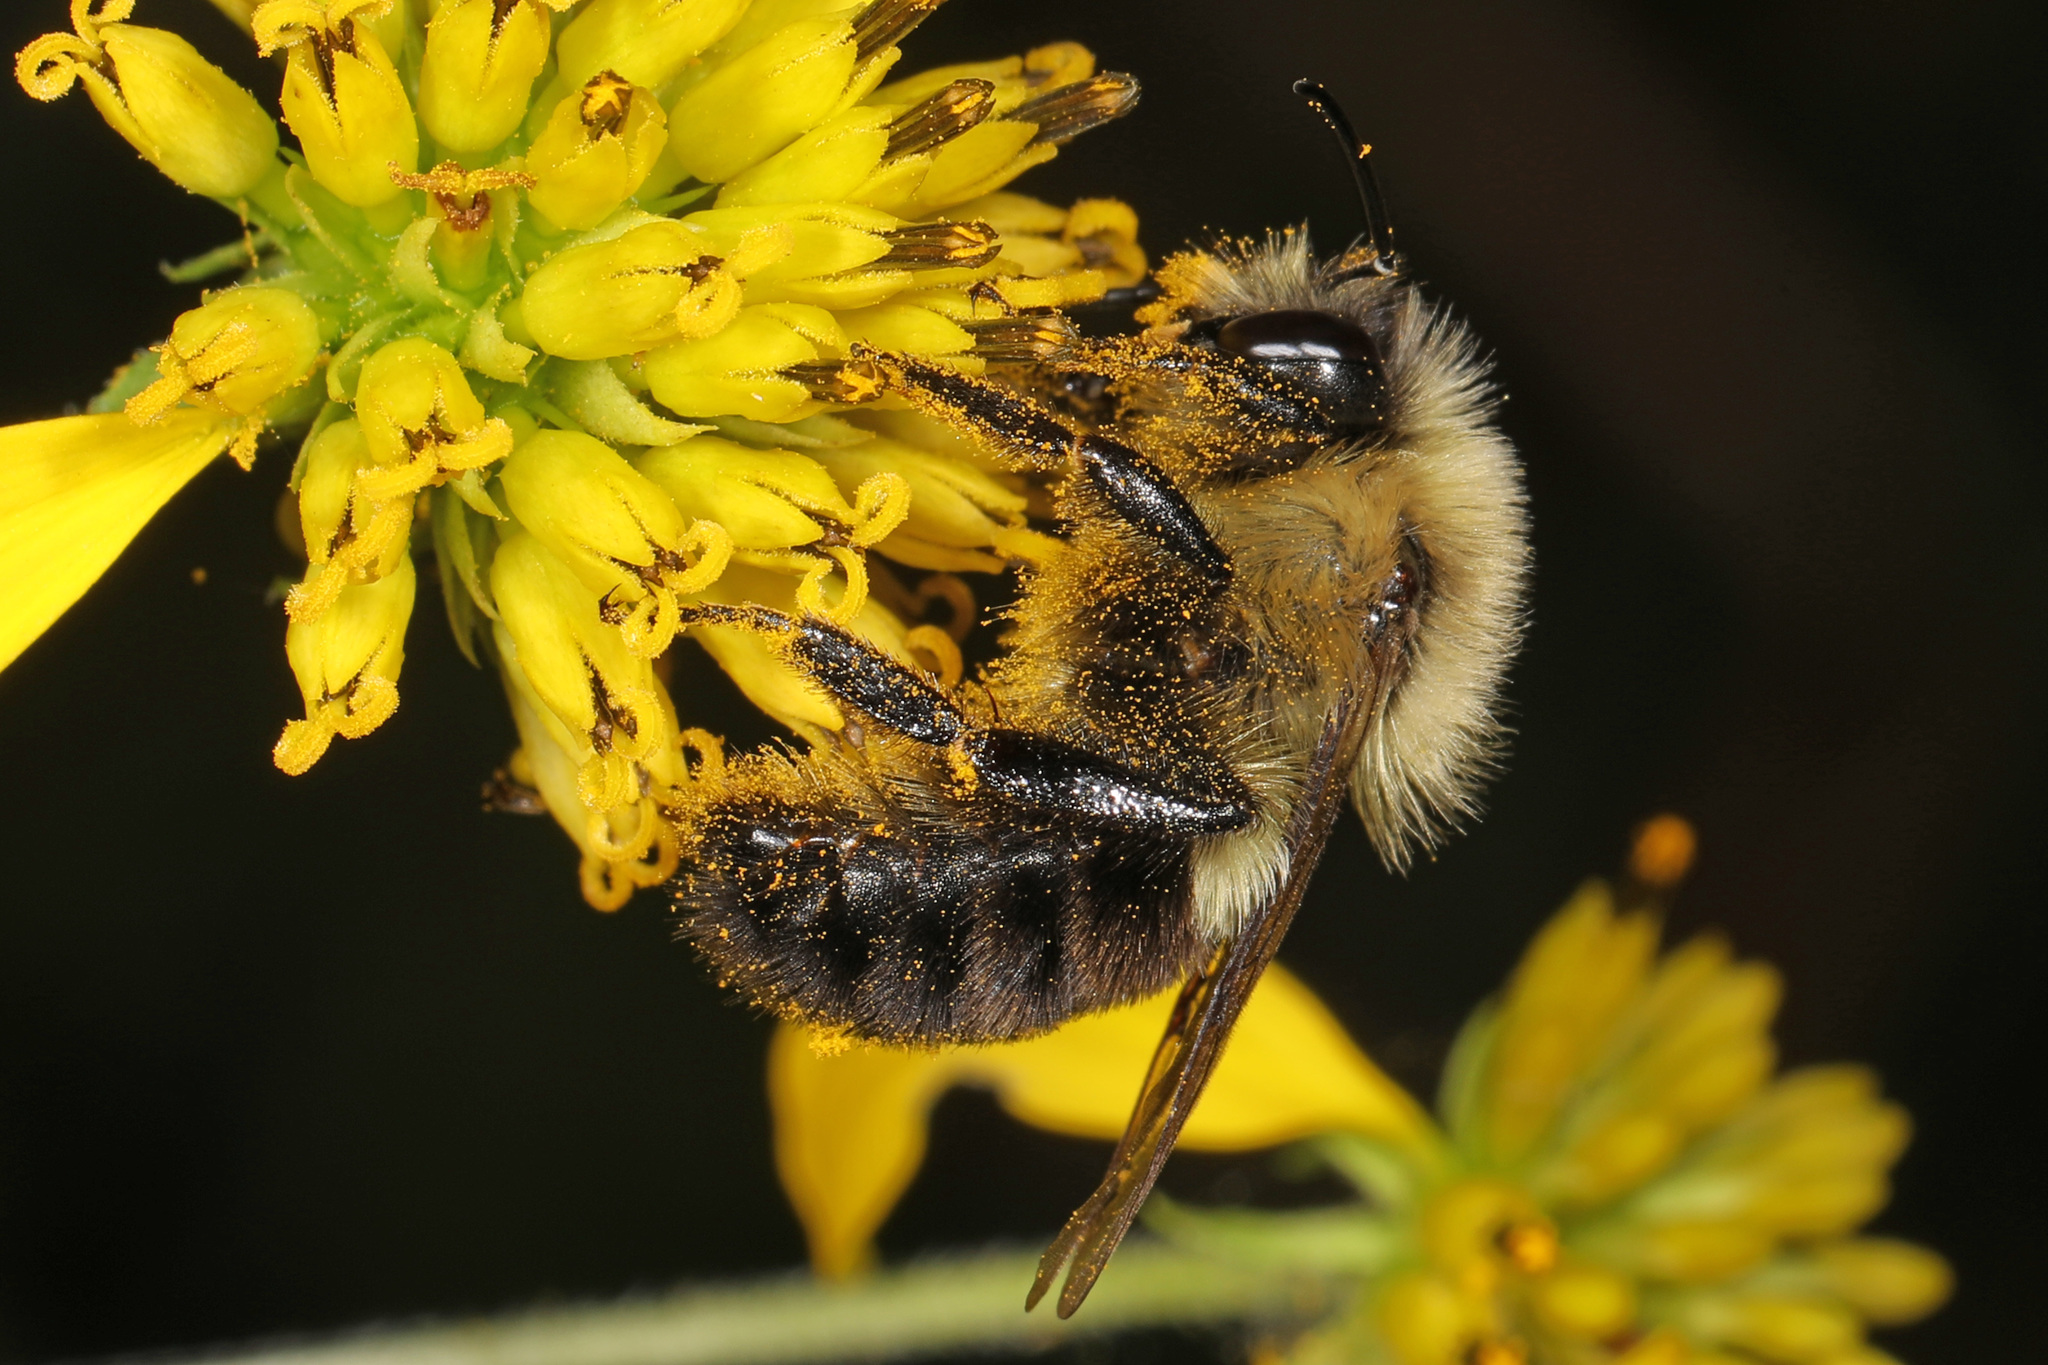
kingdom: Animalia
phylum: Arthropoda
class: Insecta
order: Hymenoptera
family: Apidae
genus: Bombus
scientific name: Bombus impatiens
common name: Common eastern bumble bee
